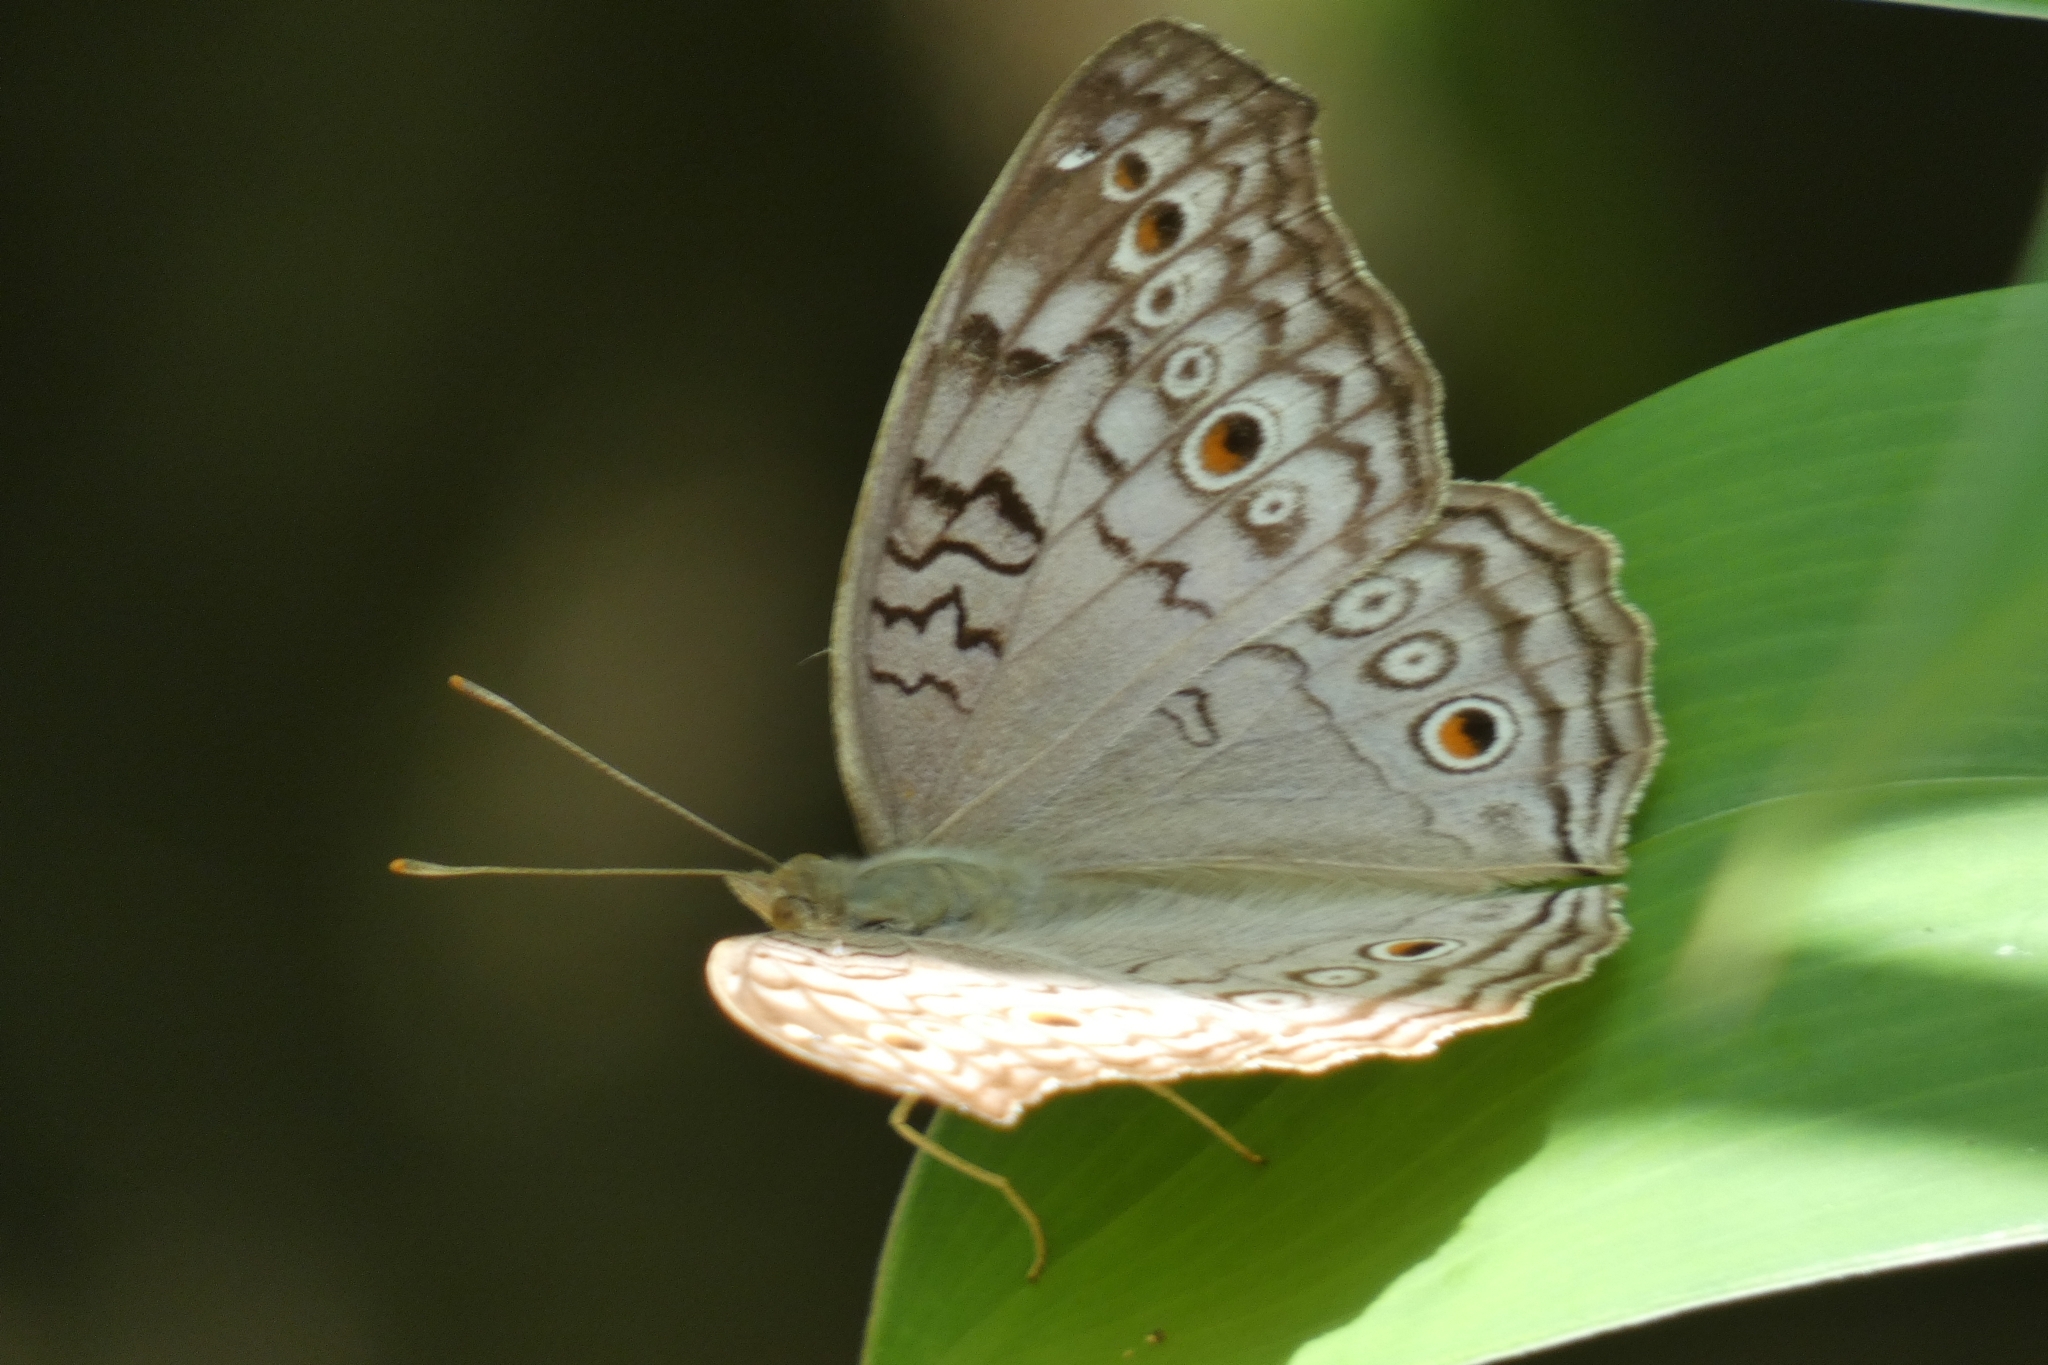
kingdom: Animalia
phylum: Arthropoda
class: Insecta
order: Lepidoptera
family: Nymphalidae
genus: Junonia
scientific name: Junonia atlites
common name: Grey pansy
